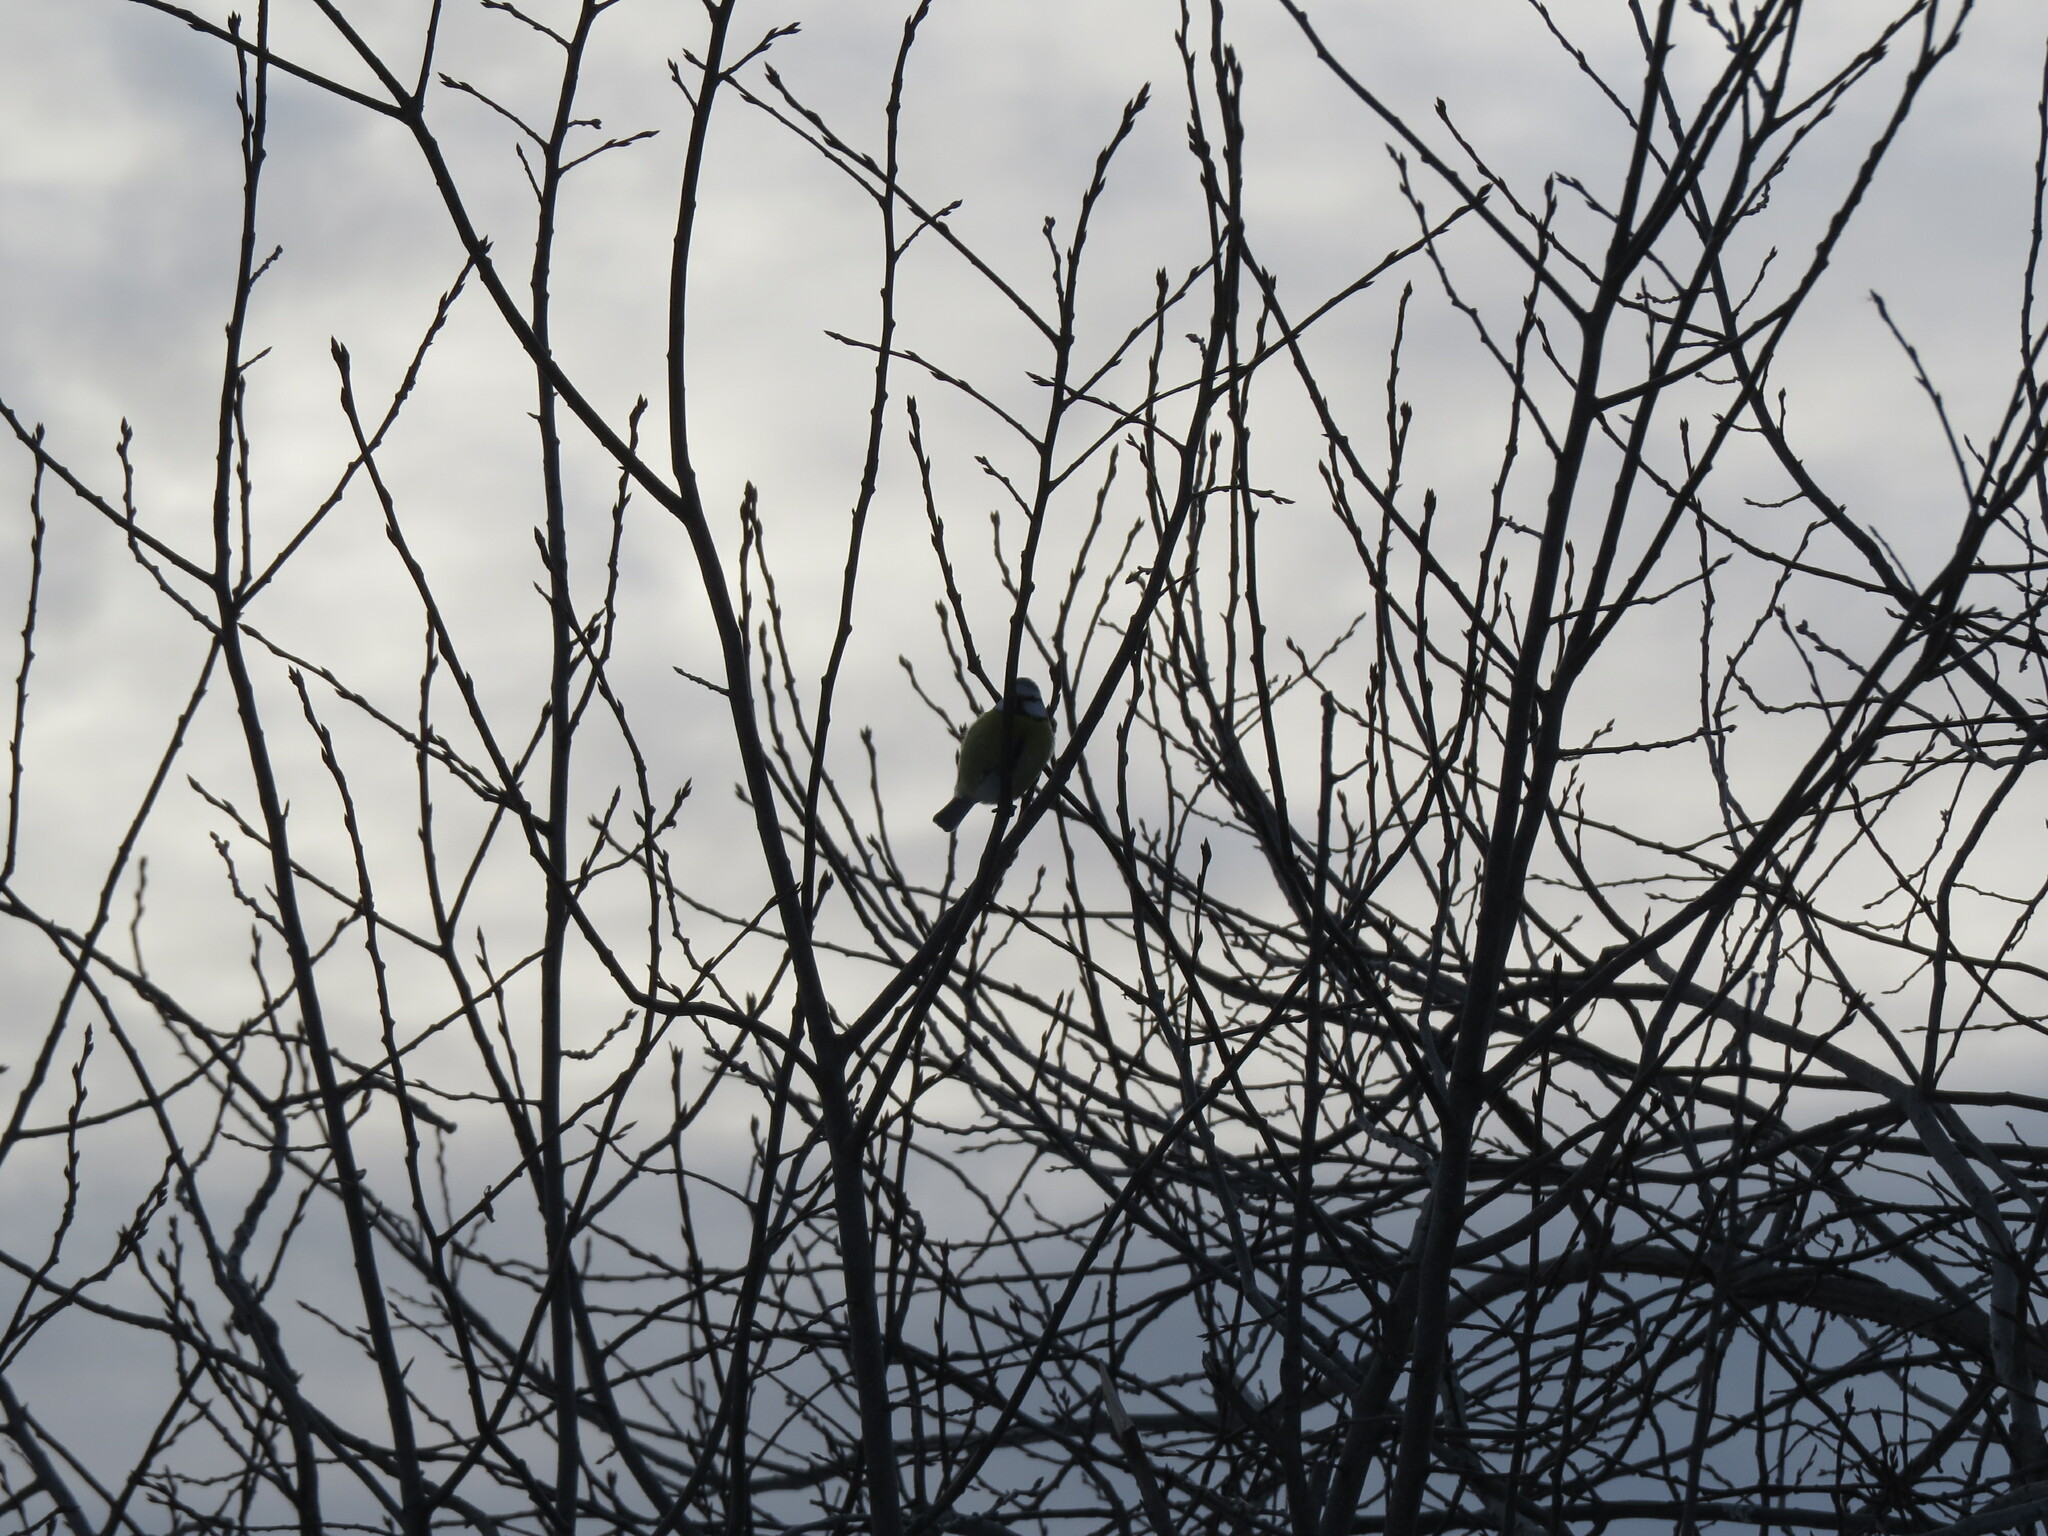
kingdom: Animalia
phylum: Chordata
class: Aves
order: Passeriformes
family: Paridae
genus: Cyanistes
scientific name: Cyanistes caeruleus
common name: Eurasian blue tit
